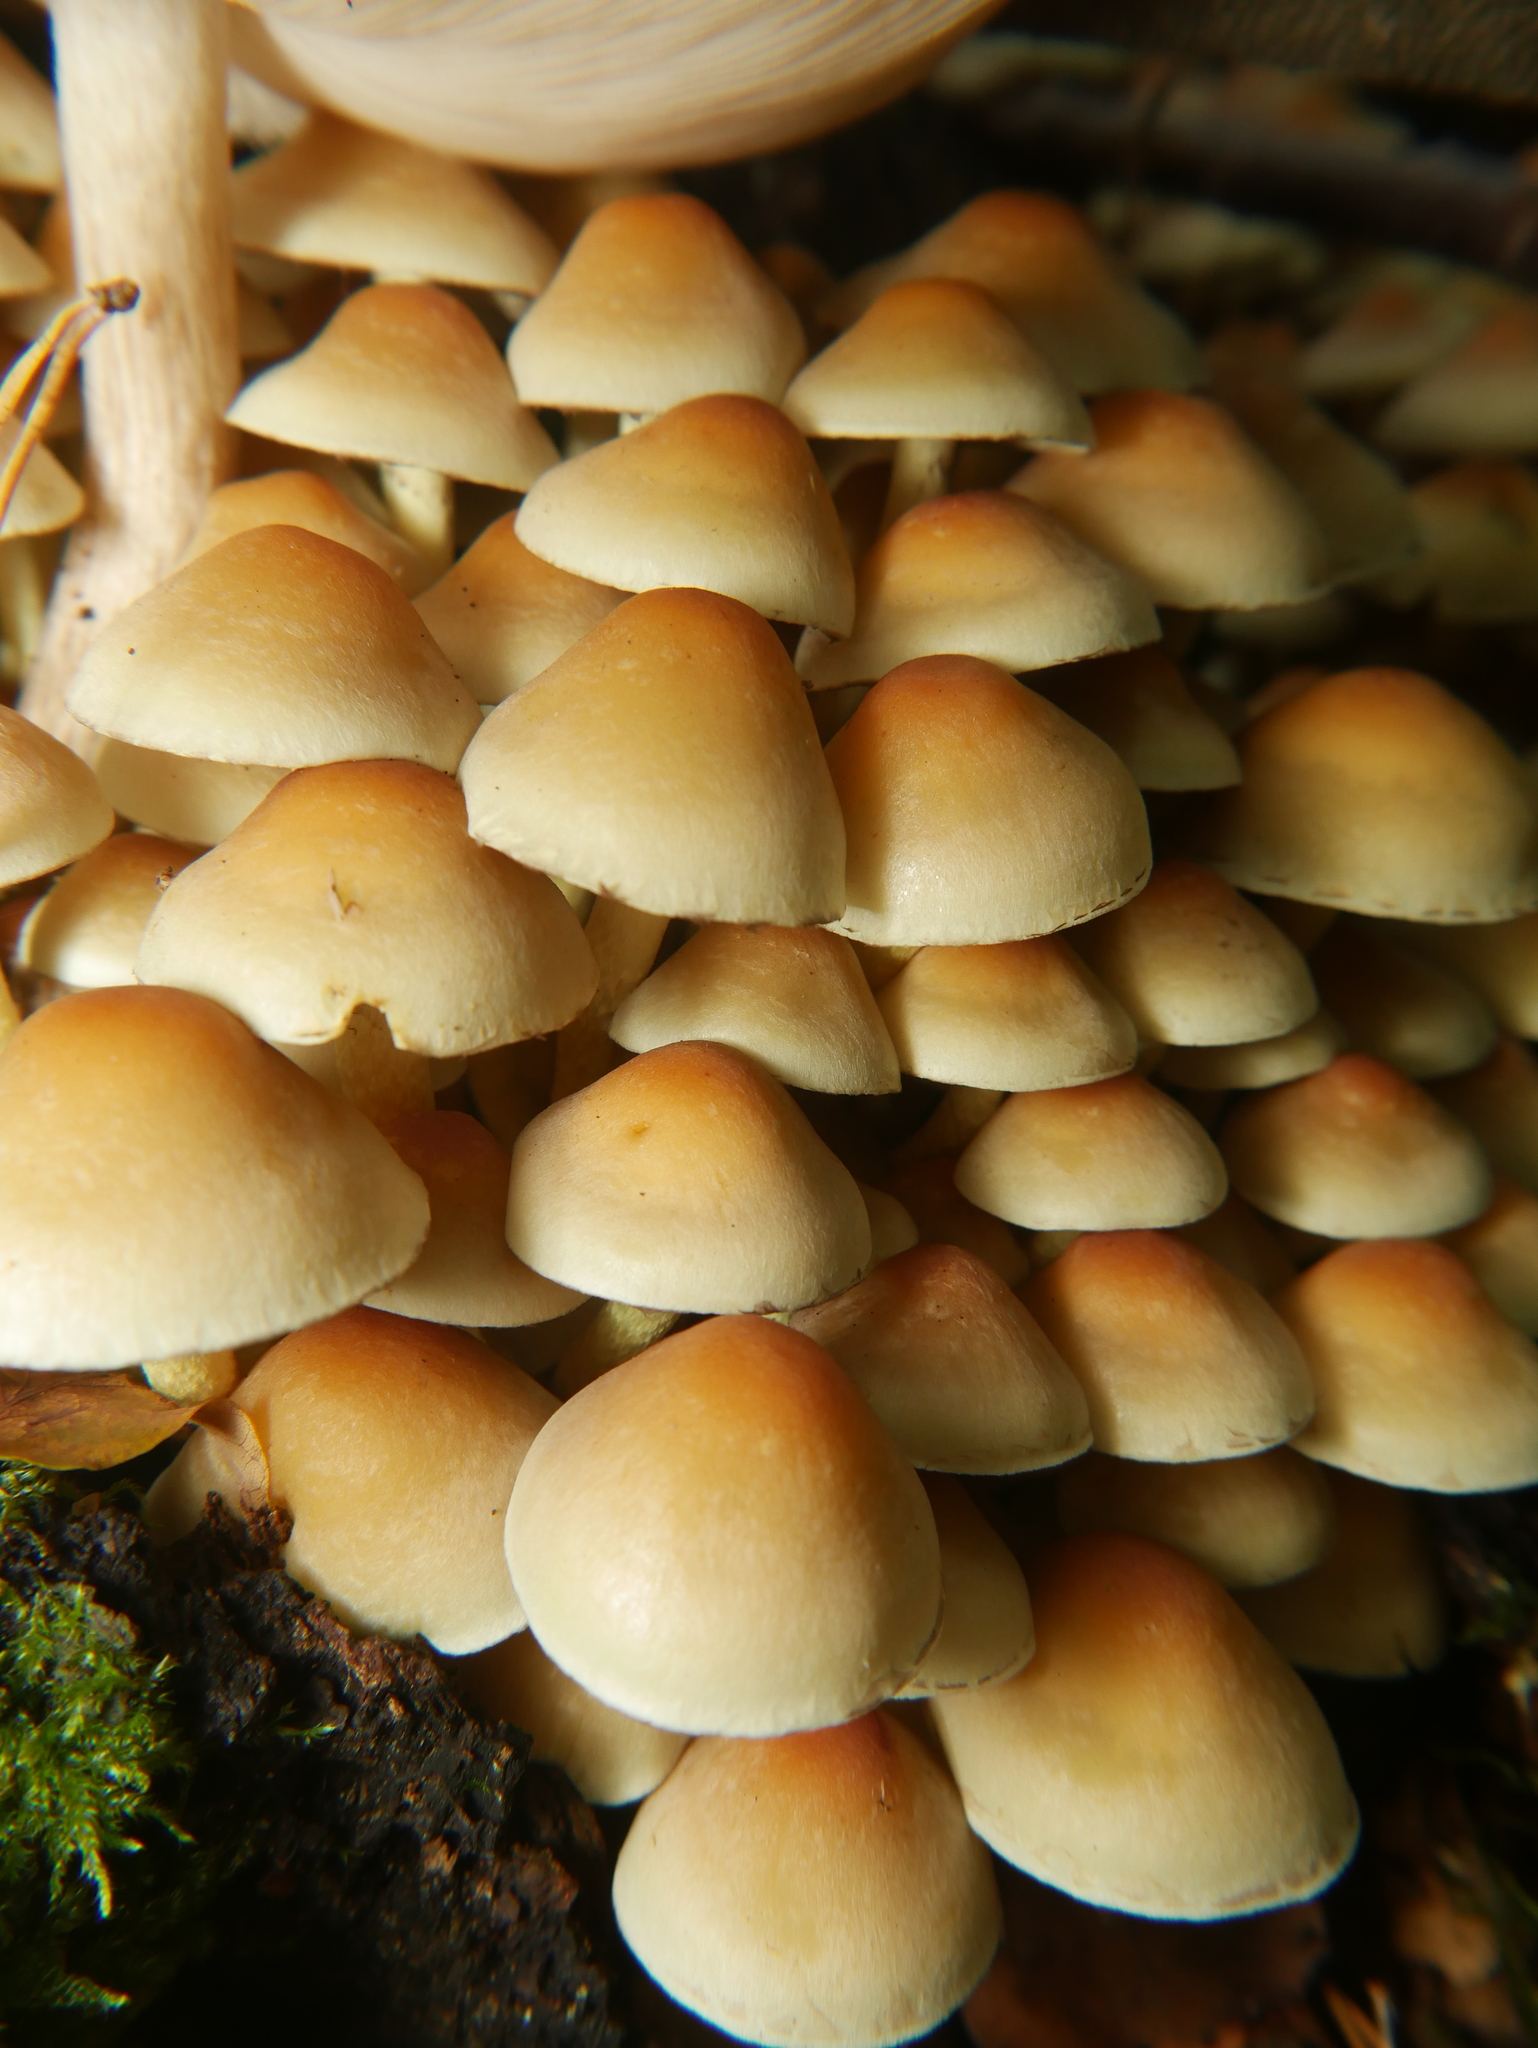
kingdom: Fungi
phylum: Basidiomycota
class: Agaricomycetes
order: Agaricales
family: Strophariaceae
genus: Hypholoma
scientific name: Hypholoma fasciculare
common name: Sulphur tuft
